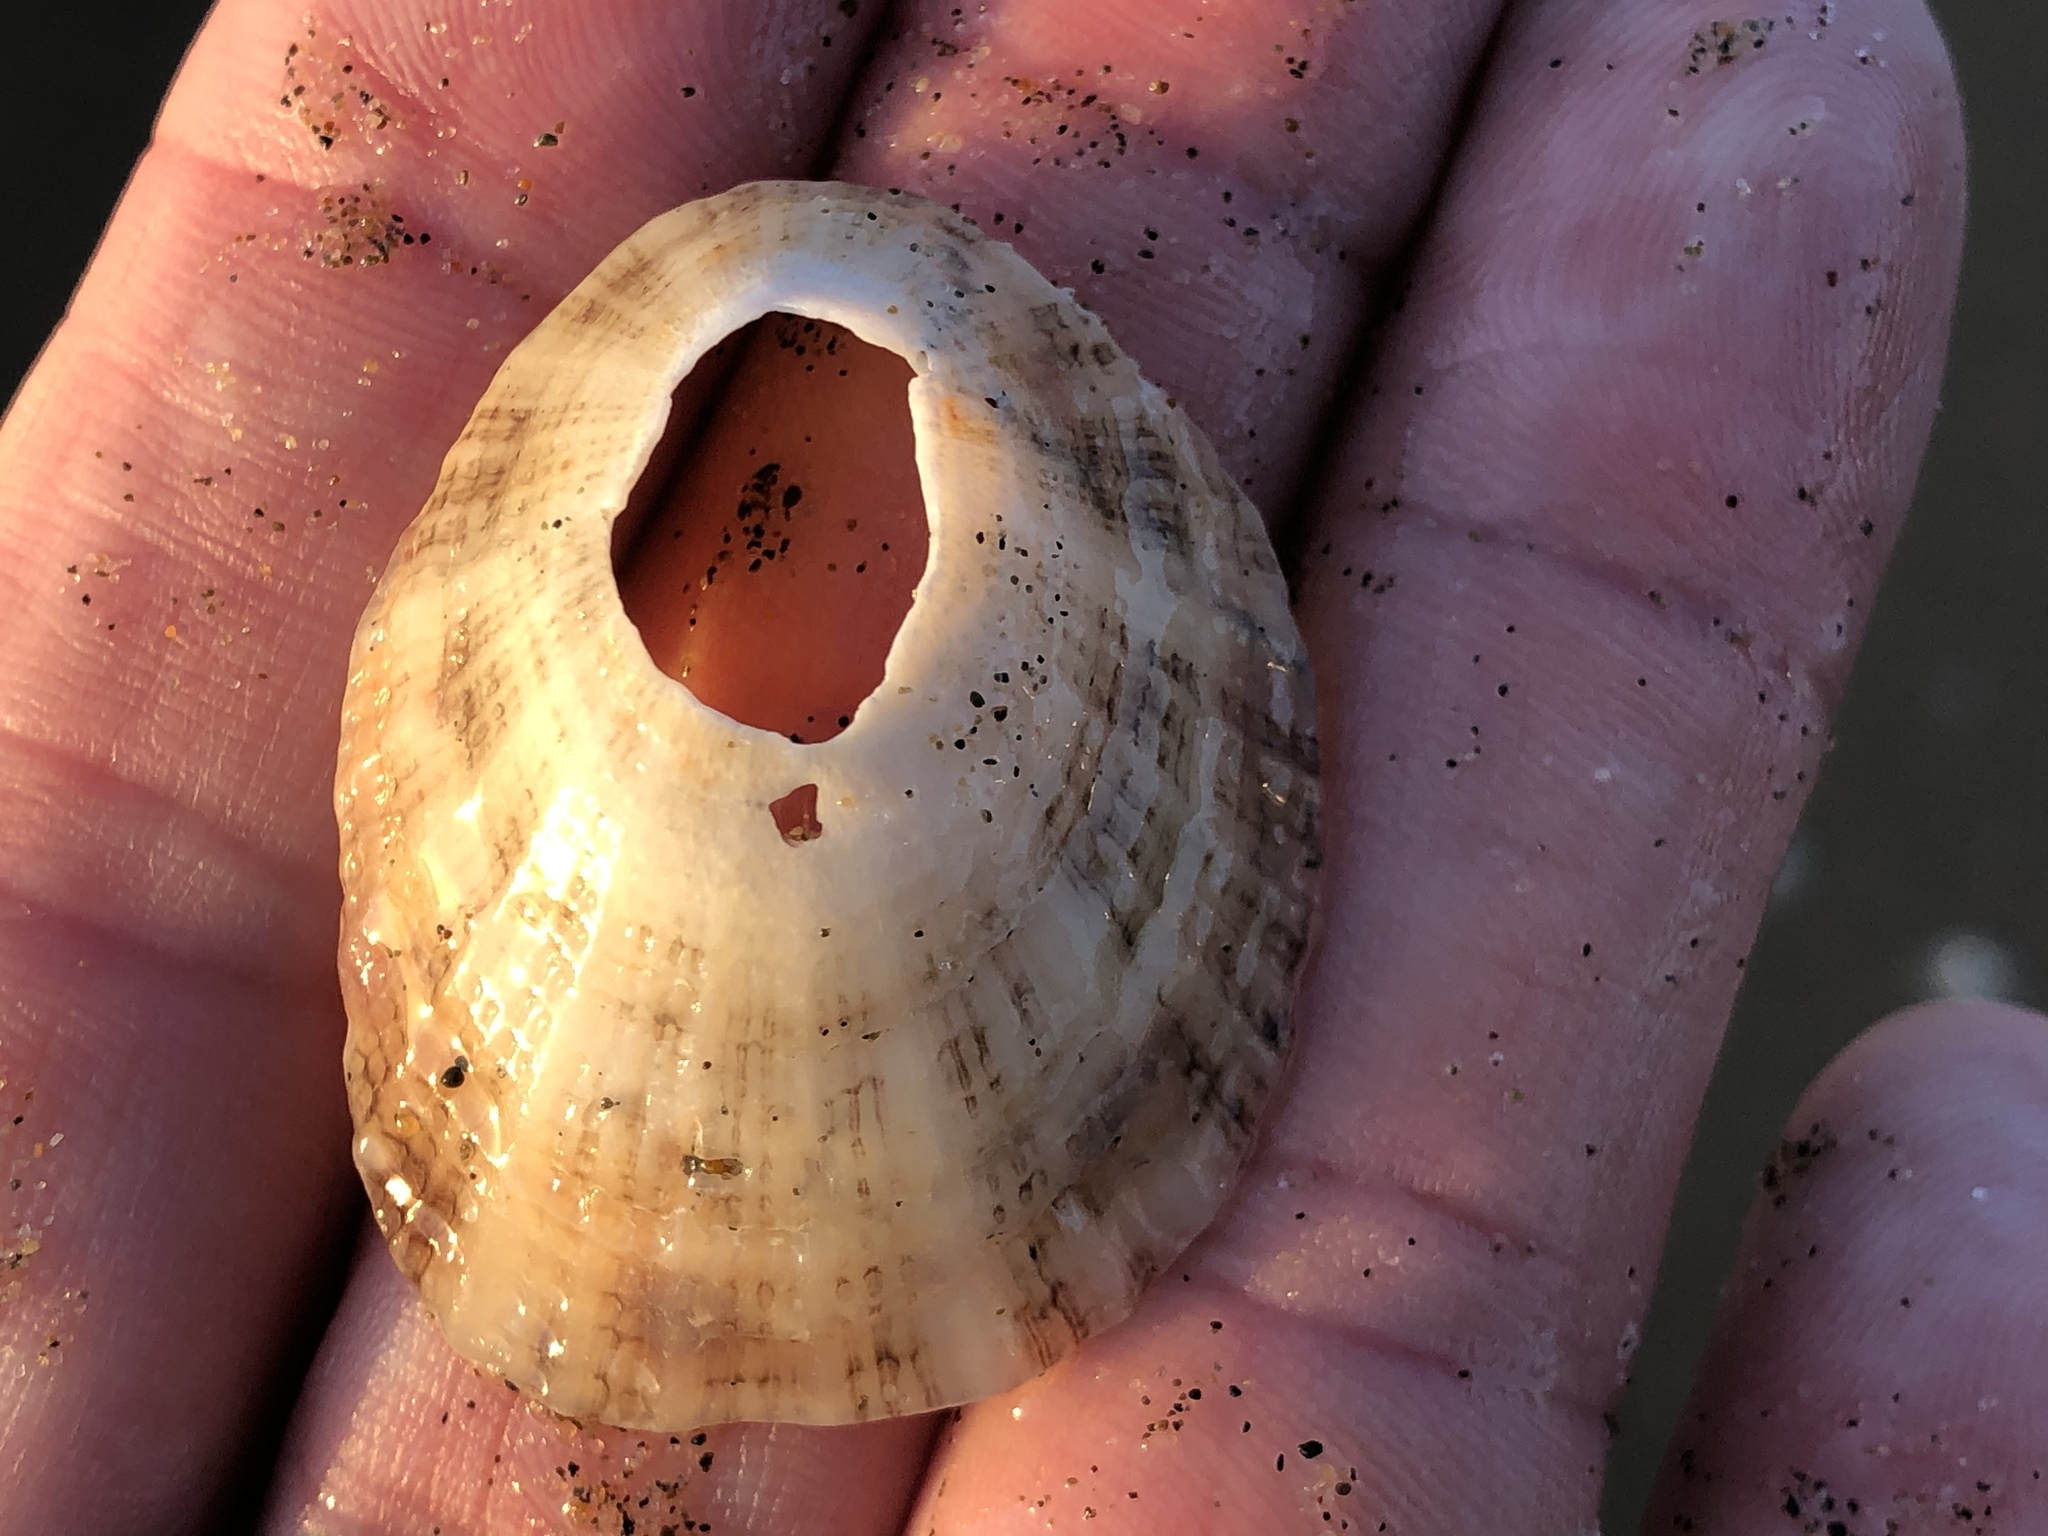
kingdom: Animalia
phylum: Mollusca
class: Gastropoda
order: Lepetellida
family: Fissurellidae
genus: Diodora
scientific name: Diodora aspera
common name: Rough keyhole limpet
